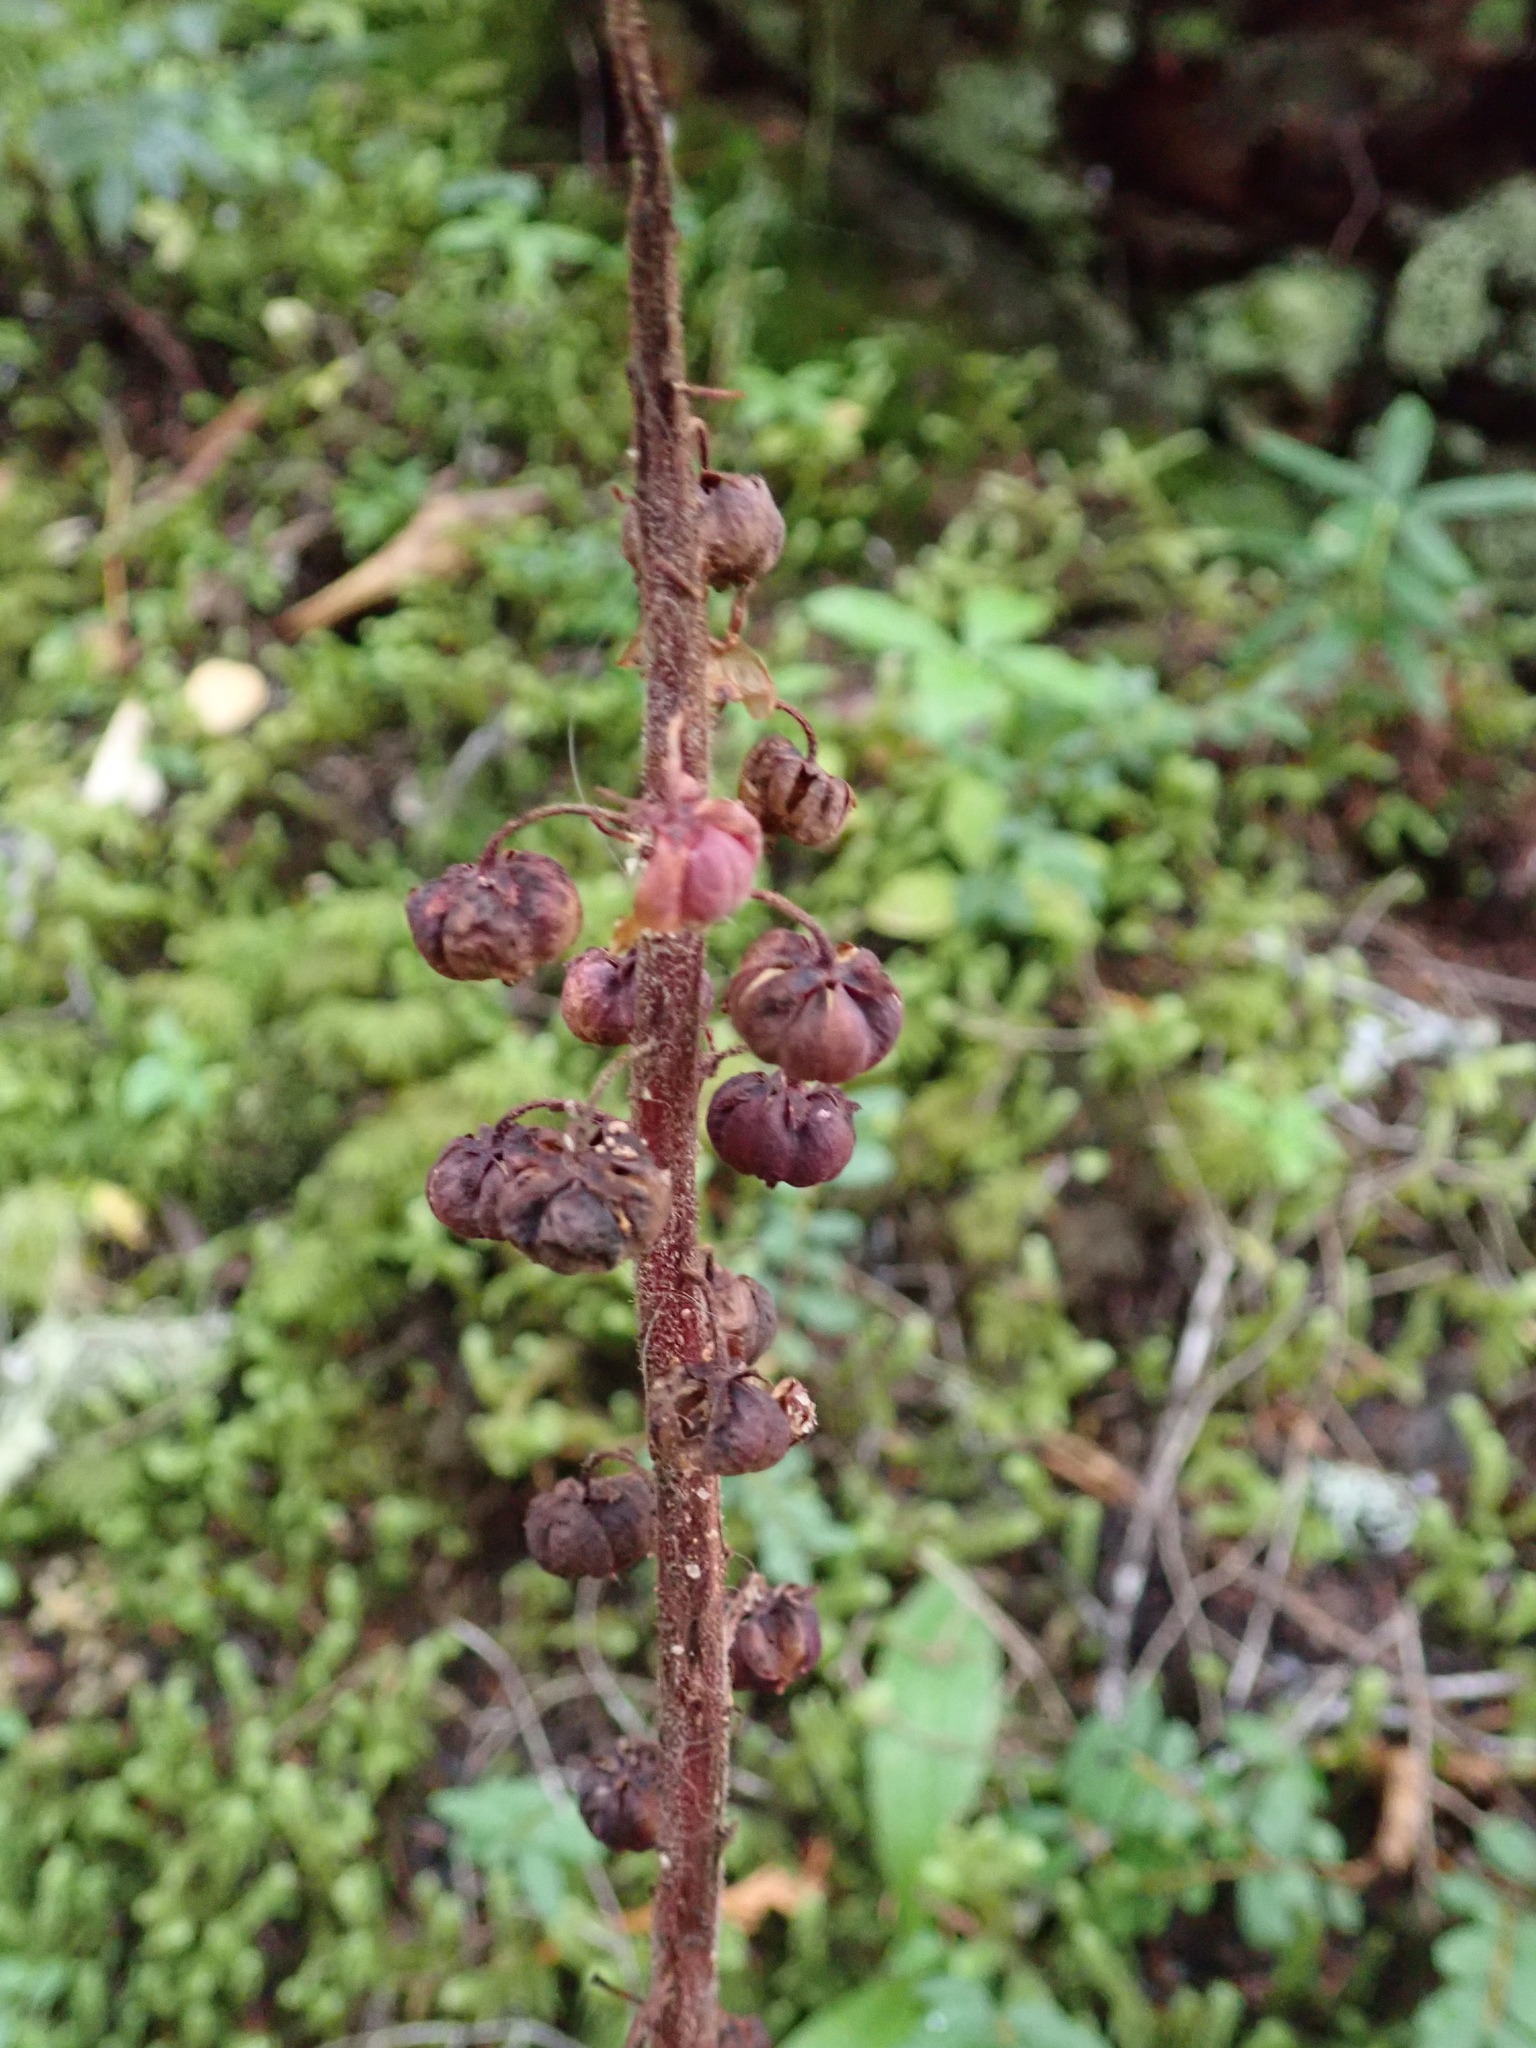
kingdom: Plantae
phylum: Tracheophyta
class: Magnoliopsida
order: Ericales
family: Ericaceae
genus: Pterospora
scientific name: Pterospora andromedea
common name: Giant bird's-nest
